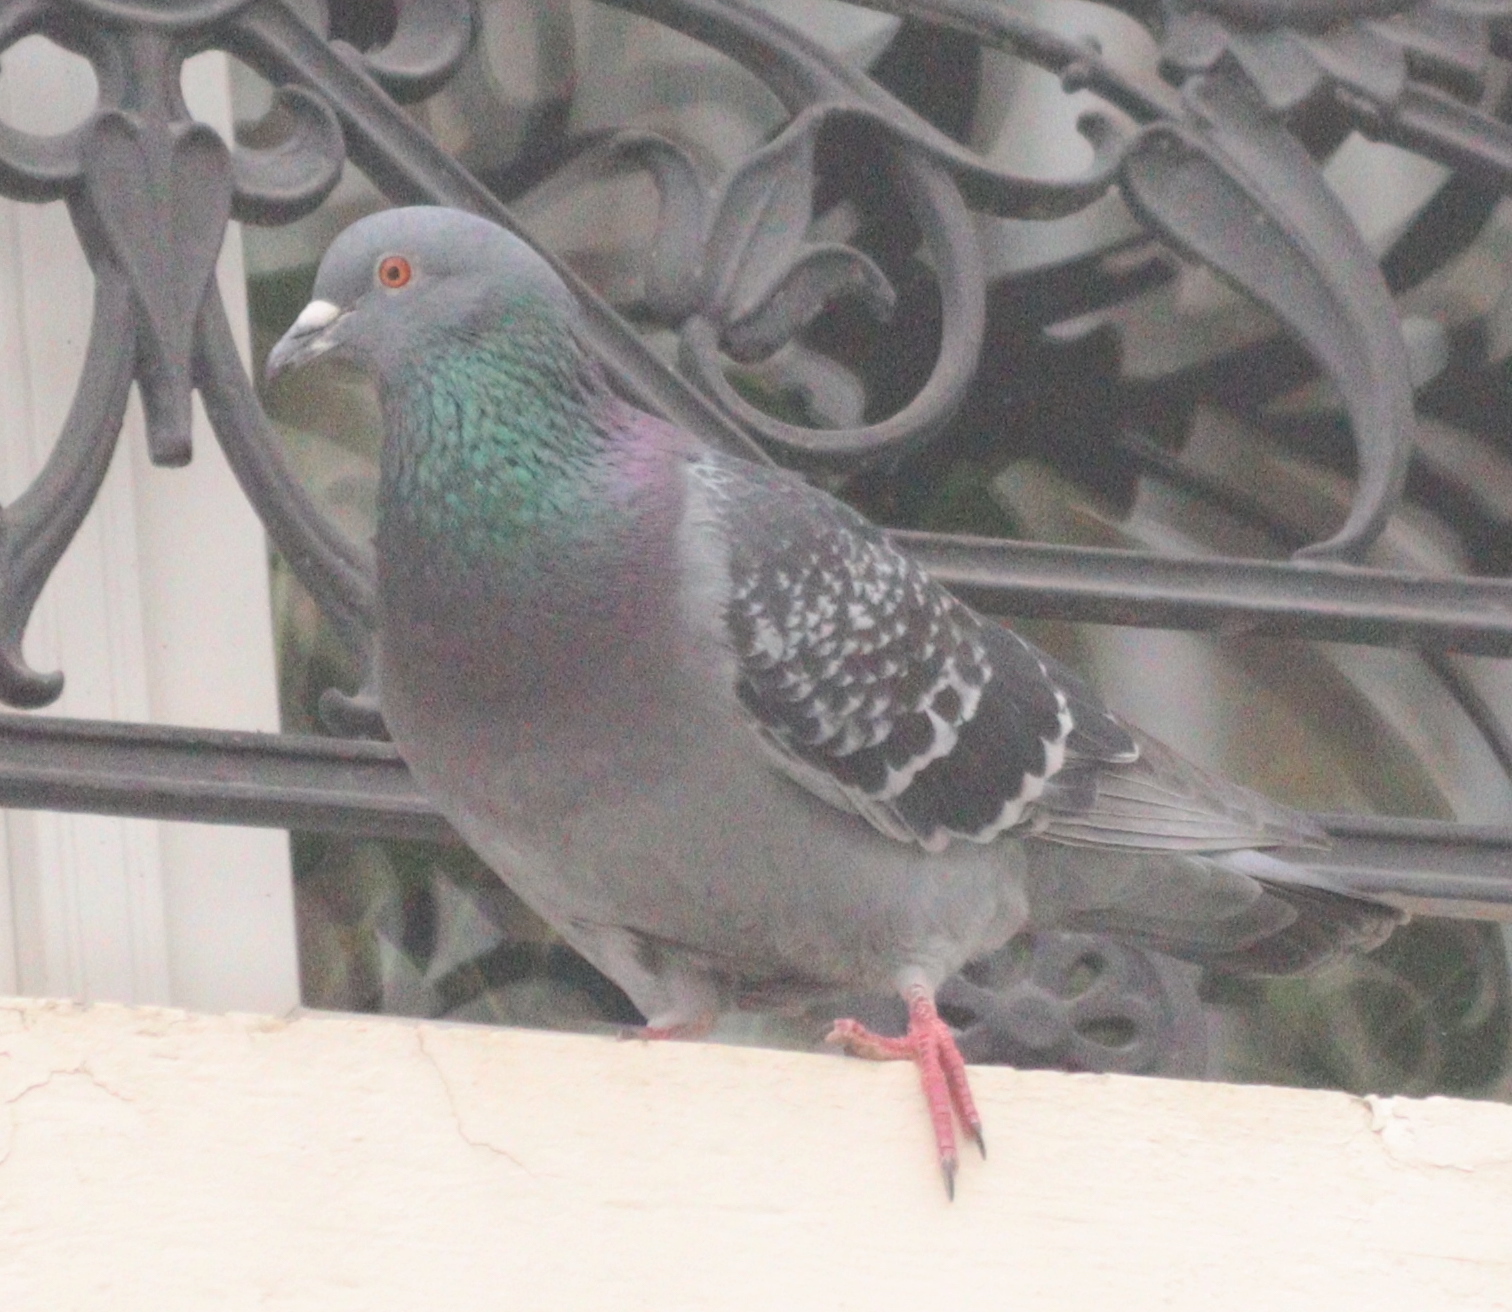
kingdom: Animalia
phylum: Chordata
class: Aves
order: Columbiformes
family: Columbidae
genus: Columba
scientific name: Columba livia
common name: Rock pigeon
